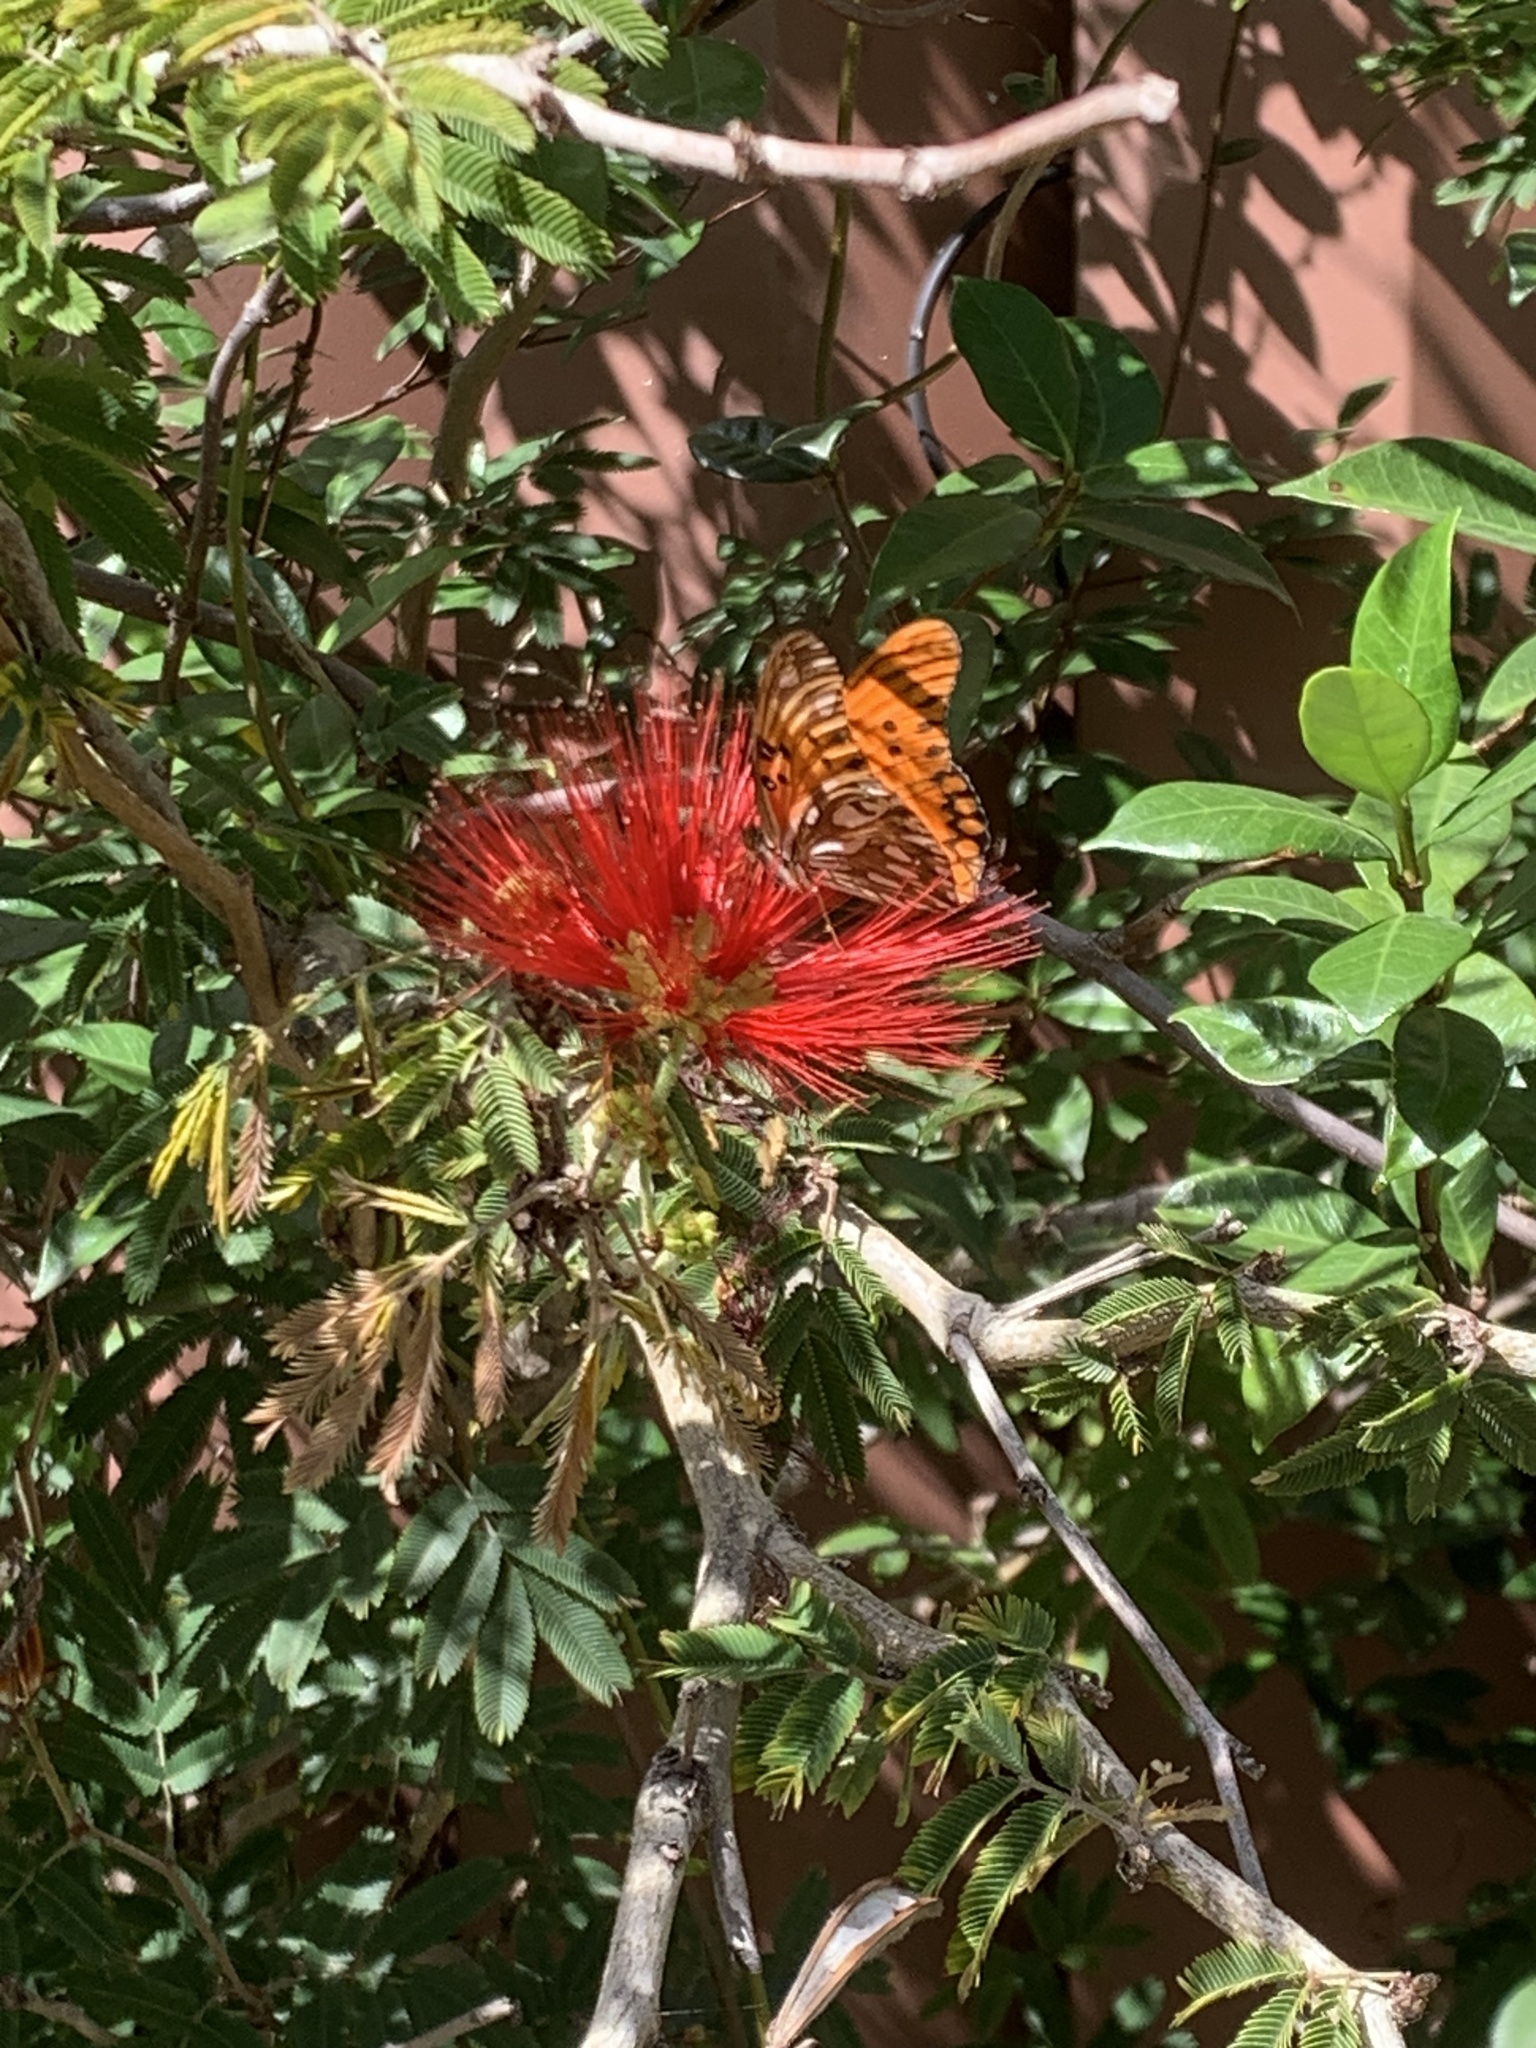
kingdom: Animalia
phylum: Arthropoda
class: Insecta
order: Lepidoptera
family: Nymphalidae
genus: Dione
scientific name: Dione vanillae
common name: Gulf fritillary
